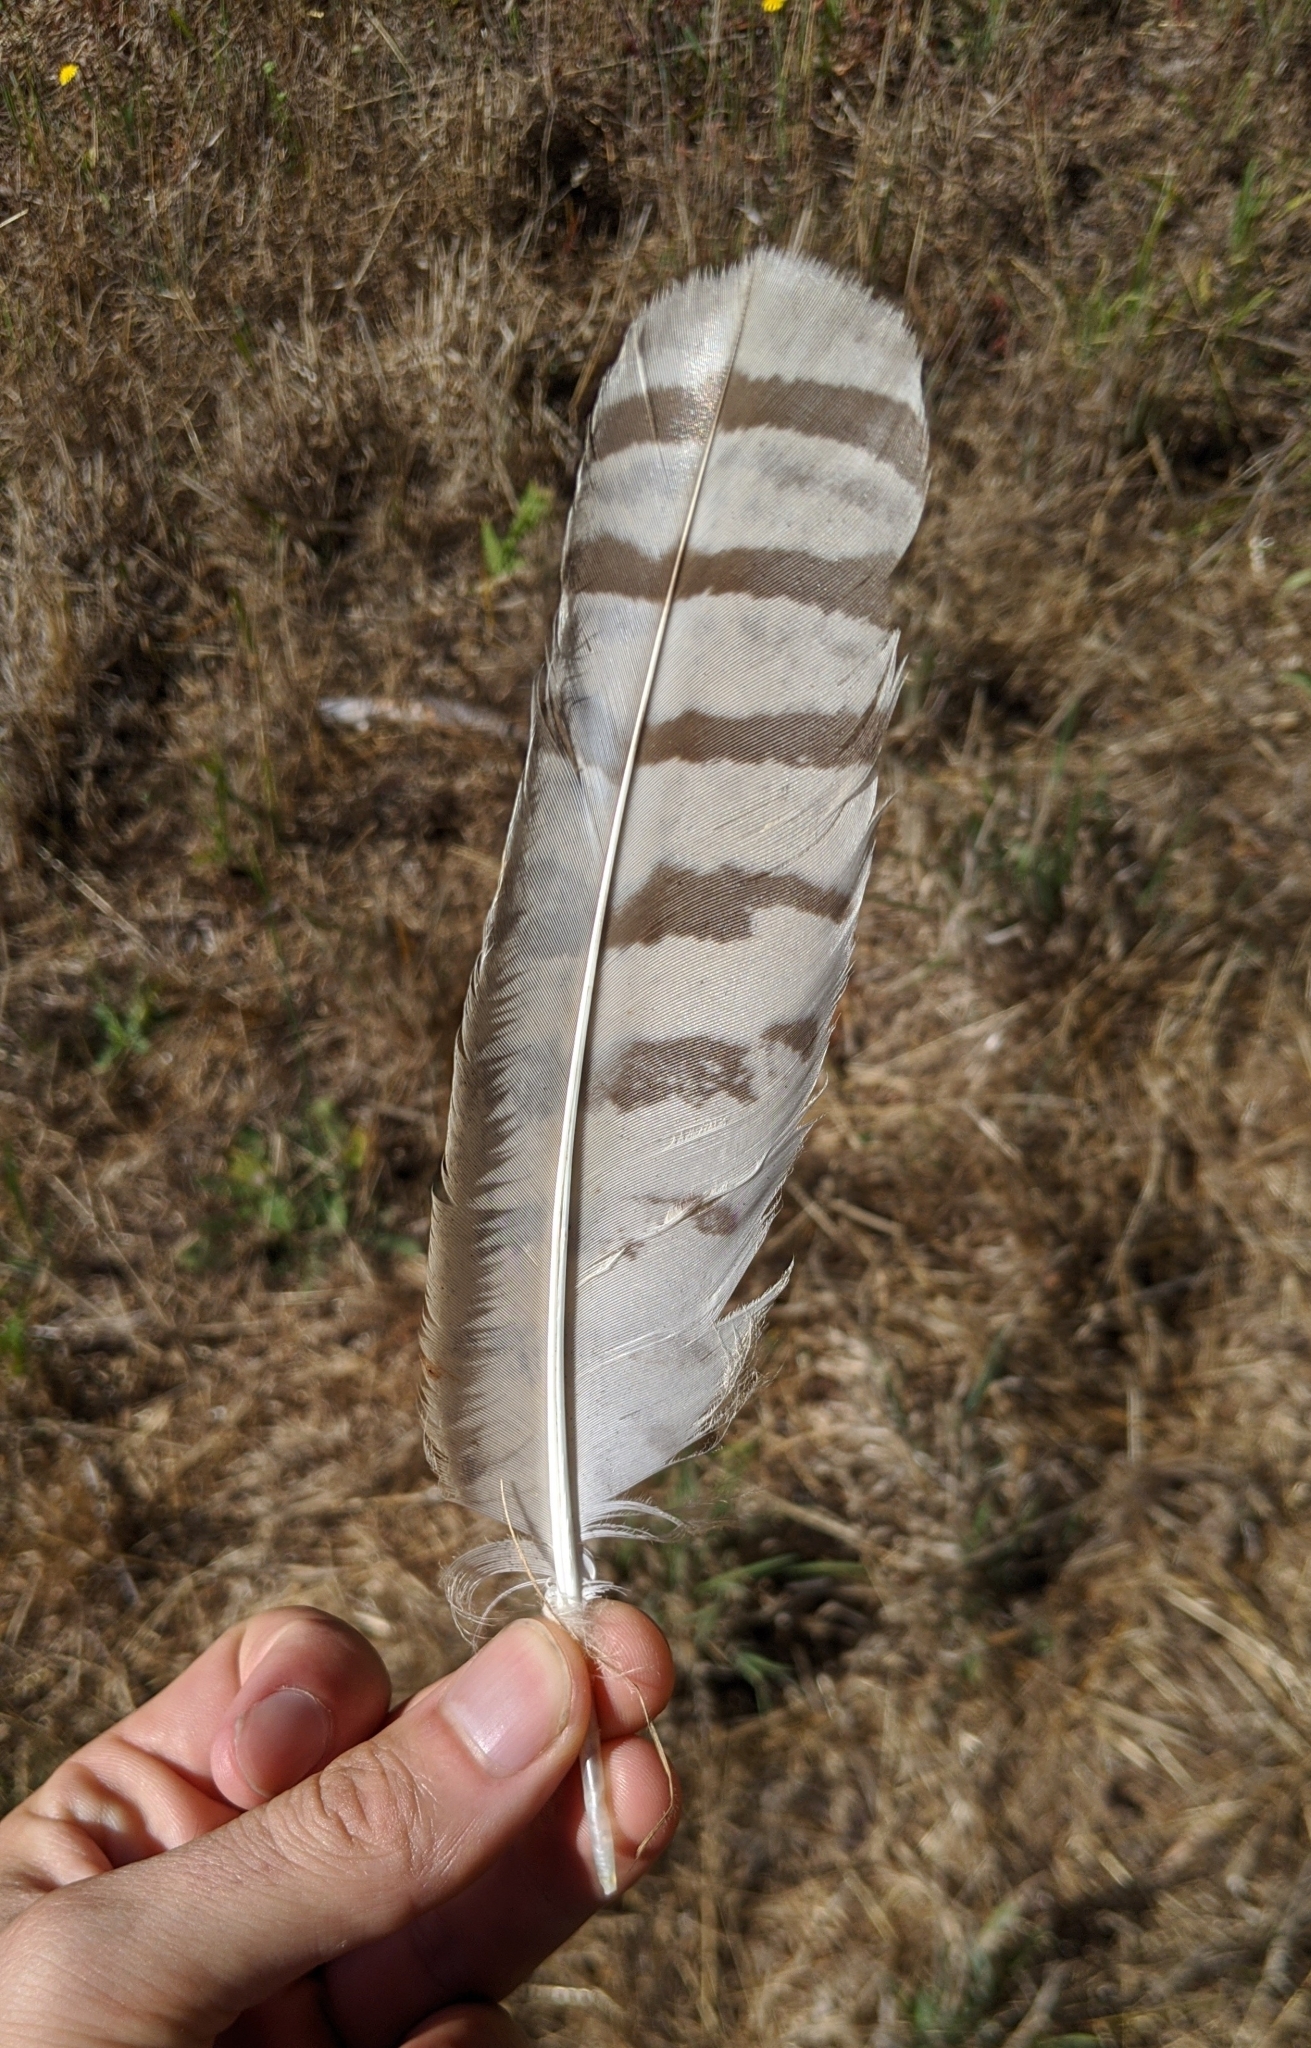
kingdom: Animalia
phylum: Chordata
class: Aves
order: Strigiformes
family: Strigidae
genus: Bubo
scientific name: Bubo virginianus
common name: Great horned owl
